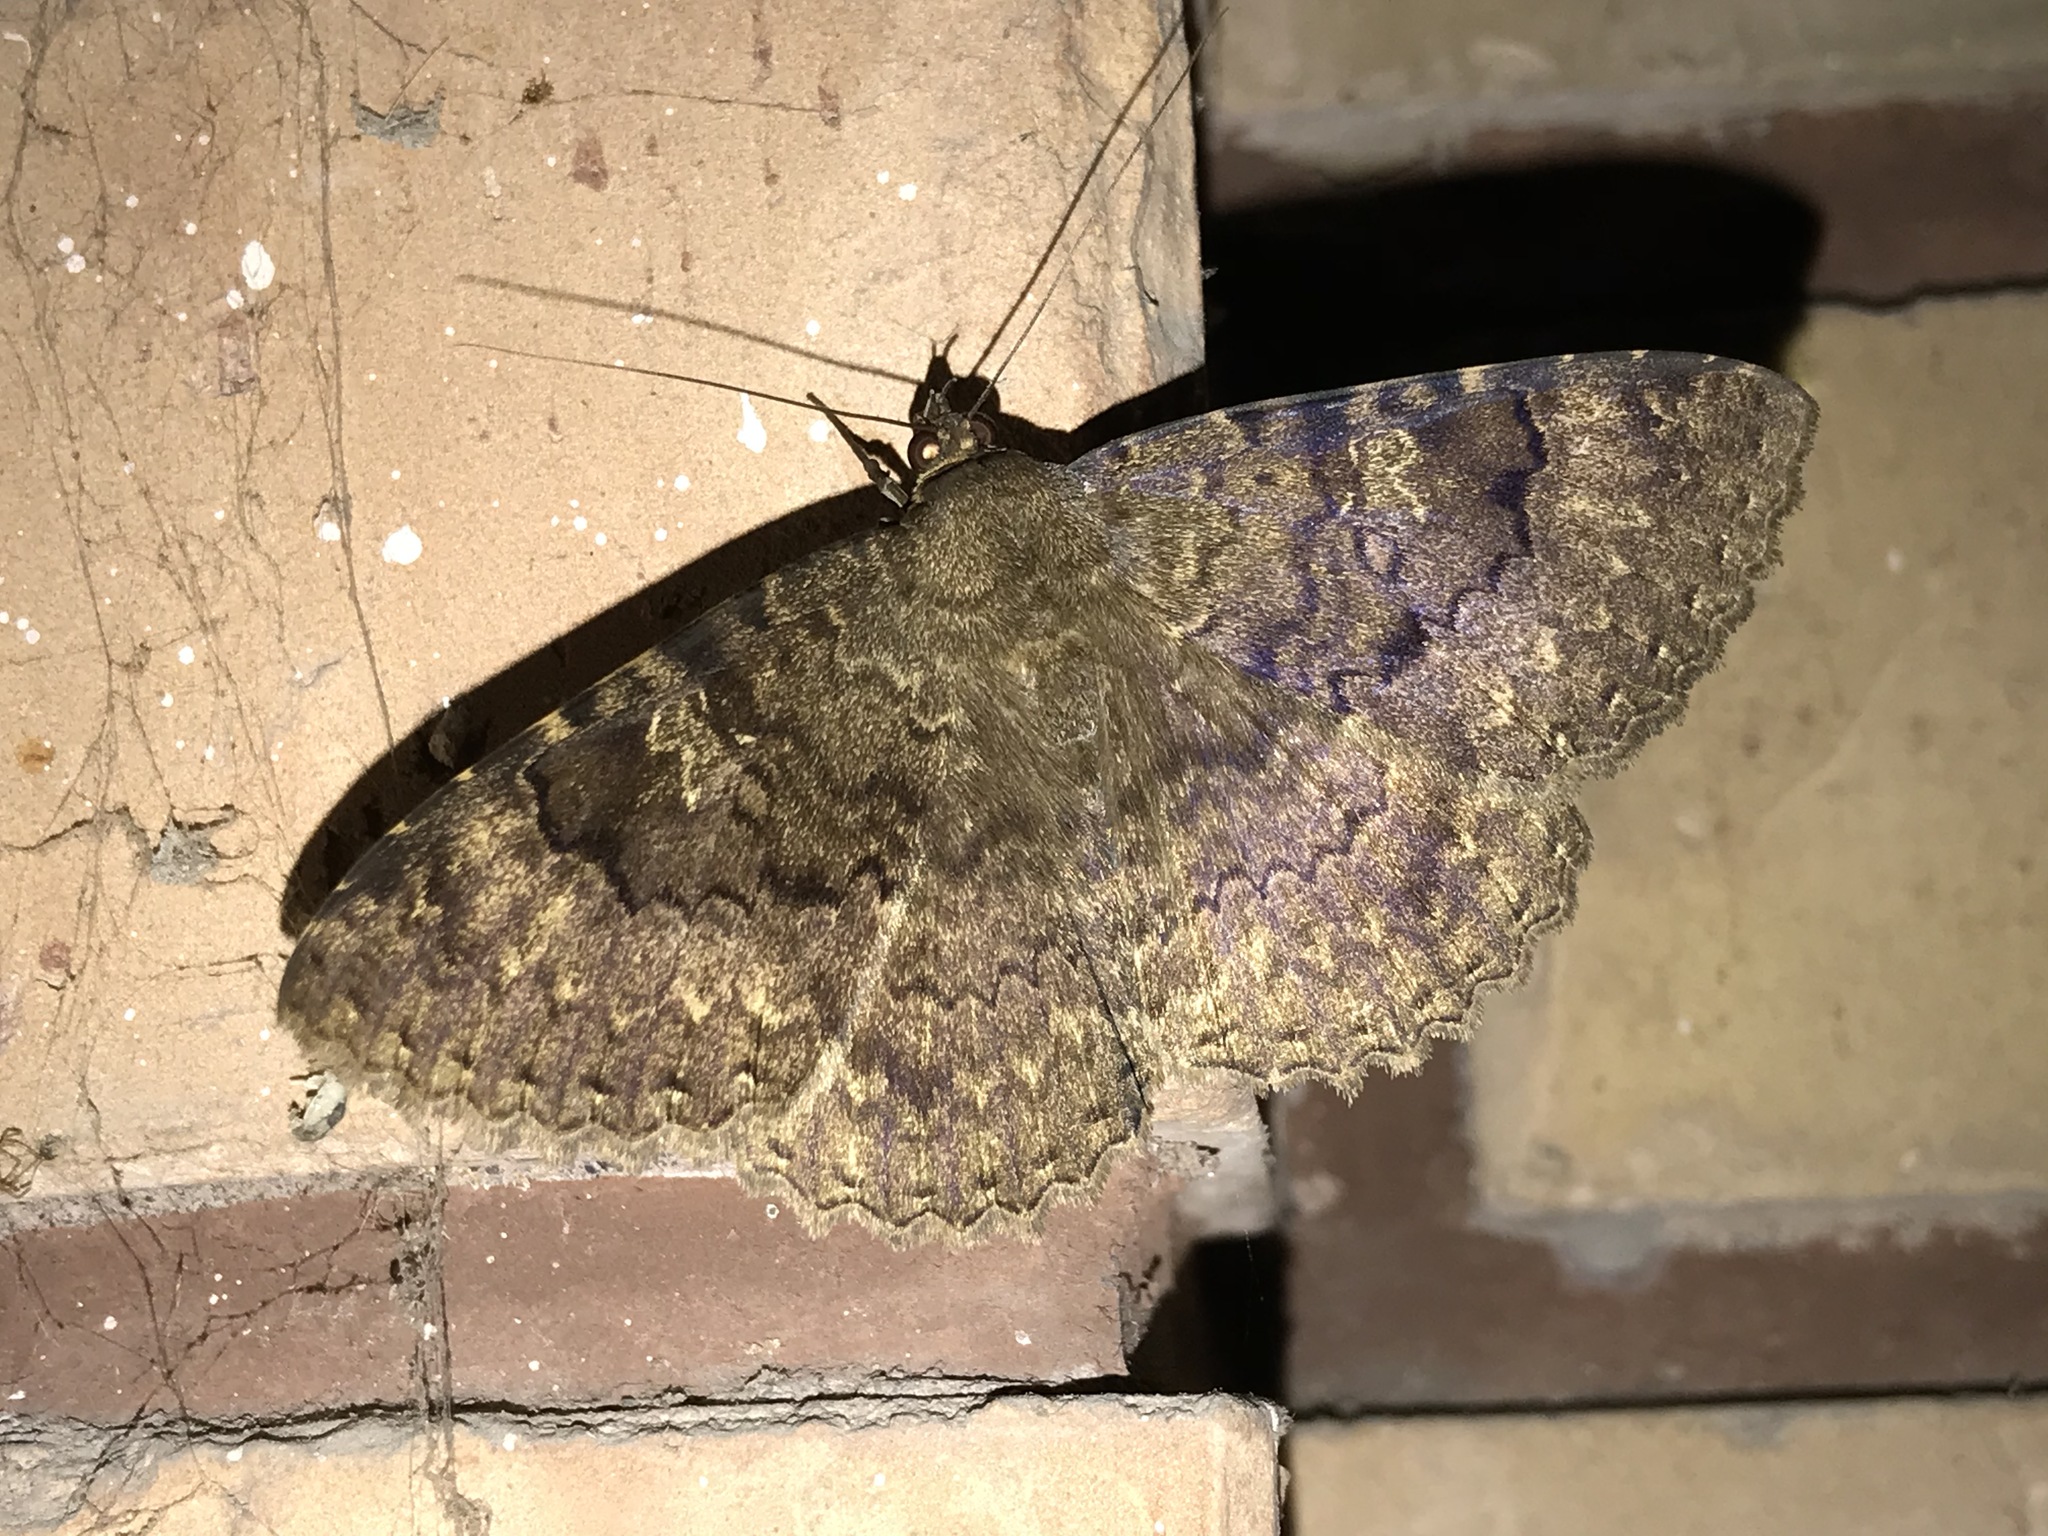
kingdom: Animalia
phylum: Arthropoda
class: Insecta
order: Lepidoptera
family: Erebidae
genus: Latebraria
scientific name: Latebraria amphipyroides
